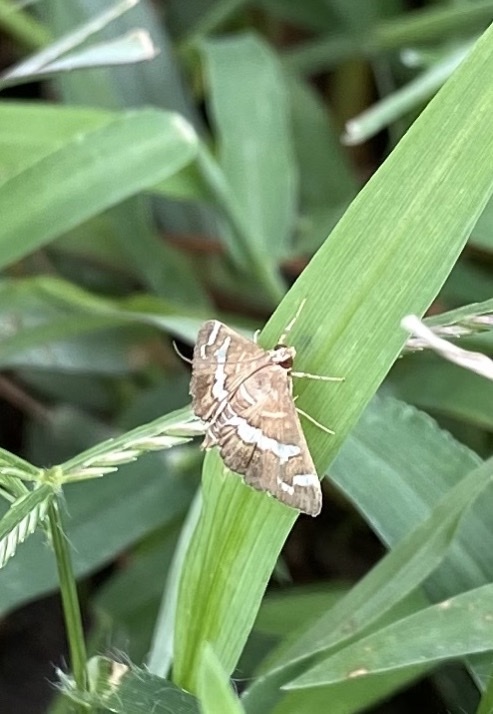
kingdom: Animalia
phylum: Arthropoda
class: Insecta
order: Lepidoptera
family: Crambidae
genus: Spoladea
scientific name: Spoladea recurvalis
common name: Beet webworm moth
